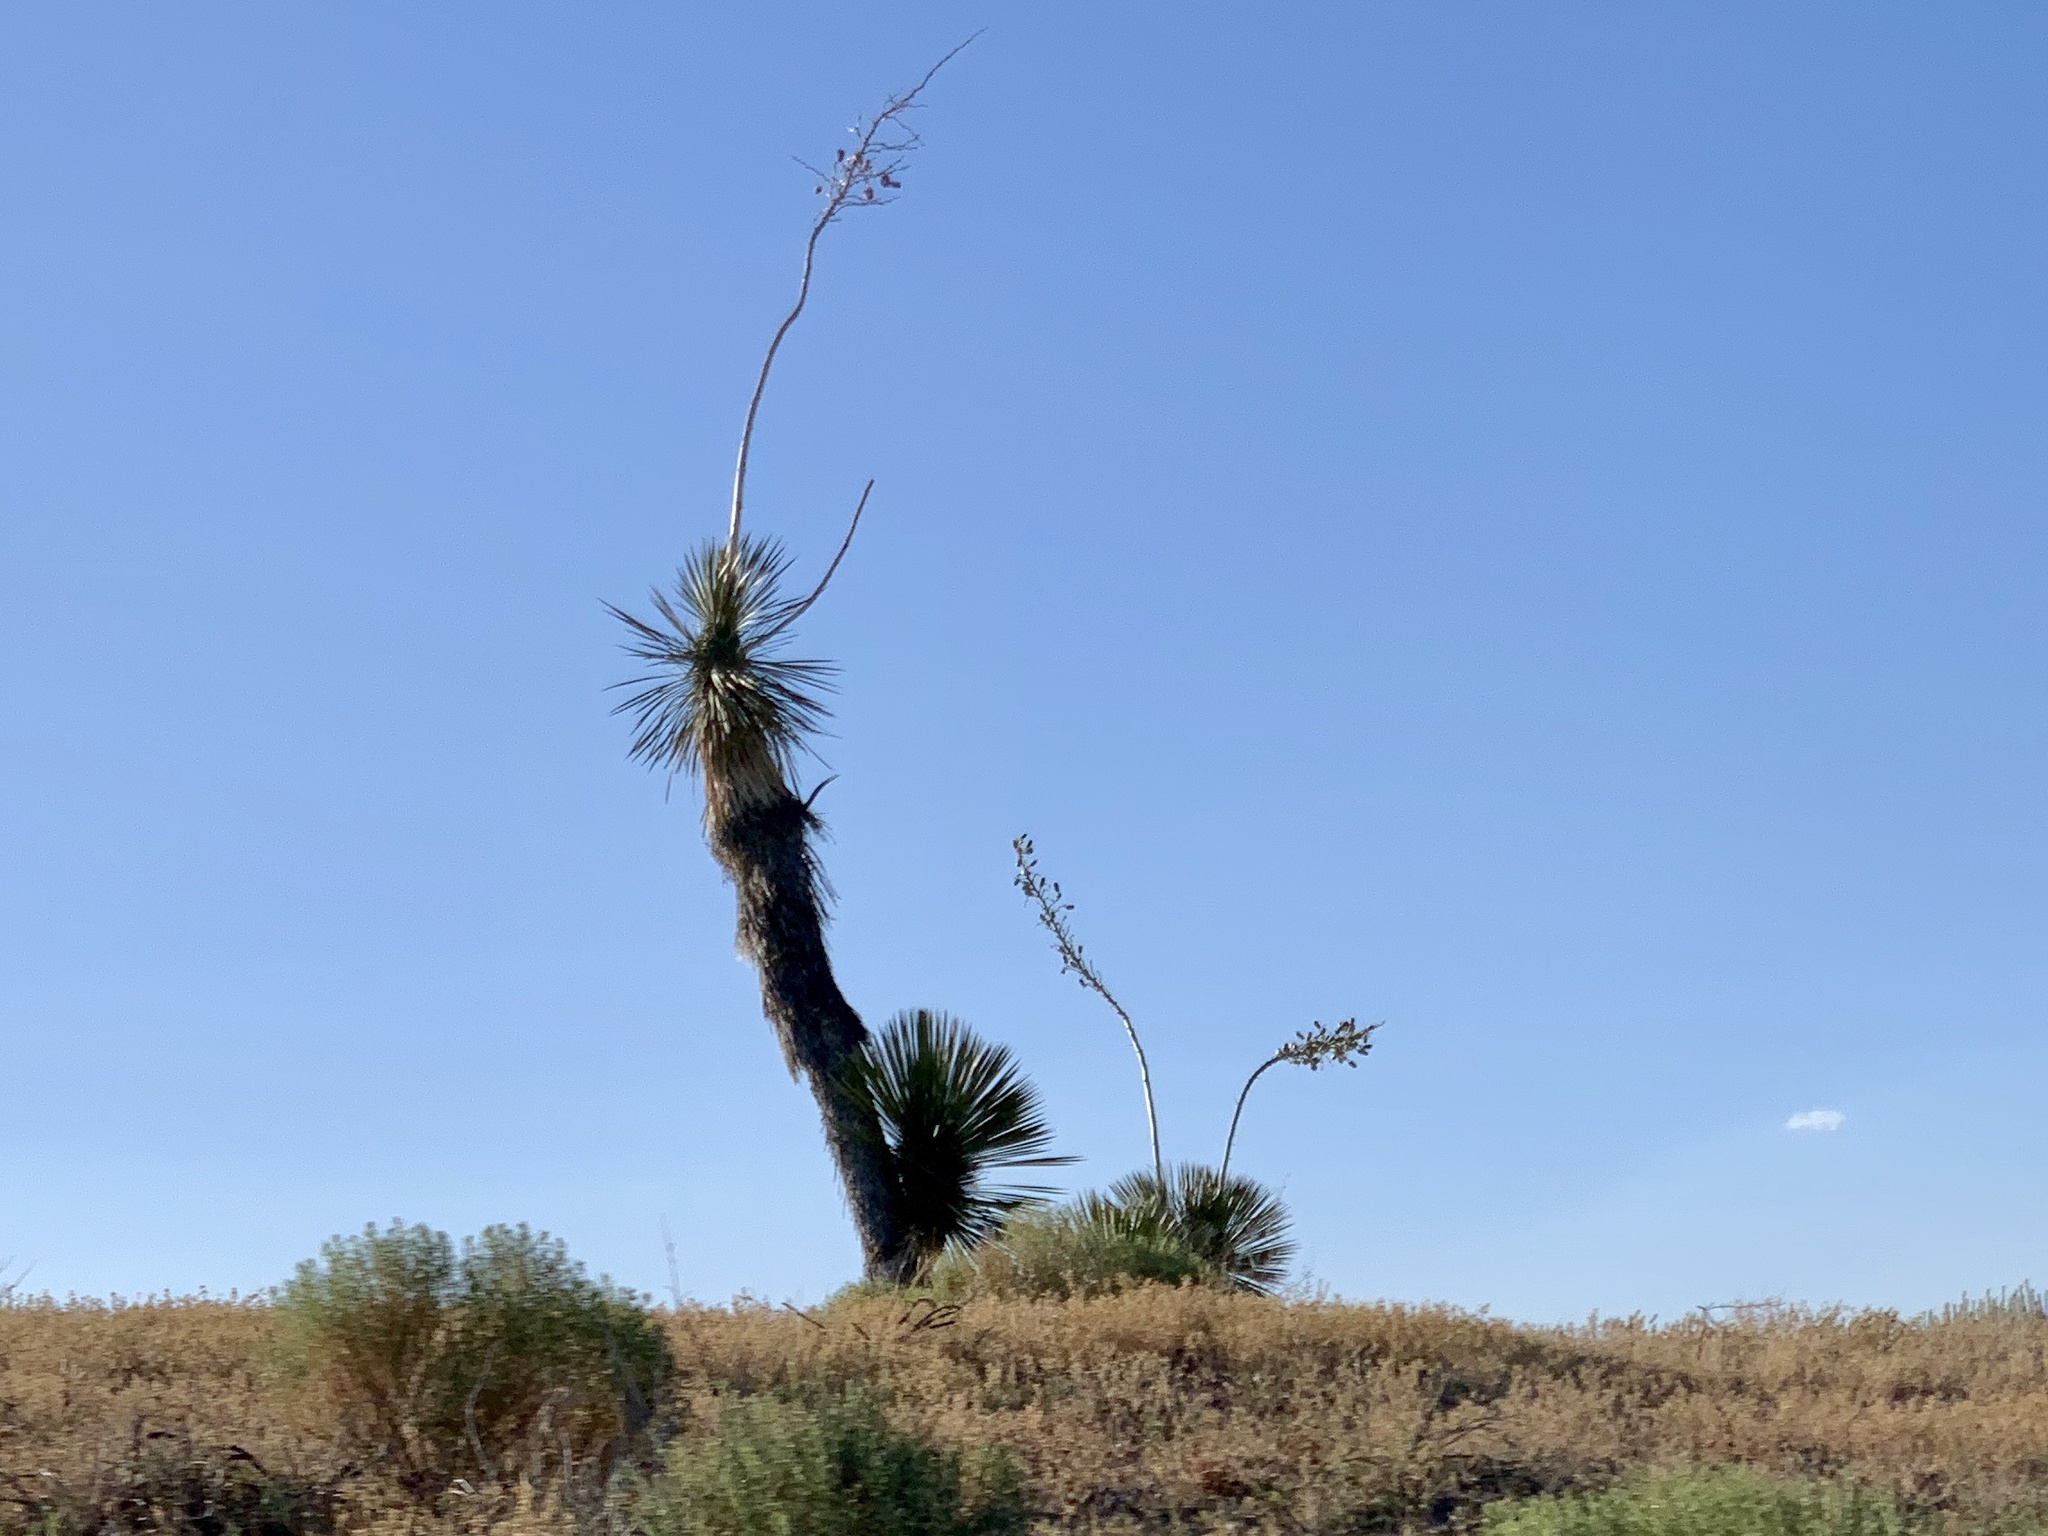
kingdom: Plantae
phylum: Tracheophyta
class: Liliopsida
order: Asparagales
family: Asparagaceae
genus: Yucca
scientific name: Yucca elata
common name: Palmella
